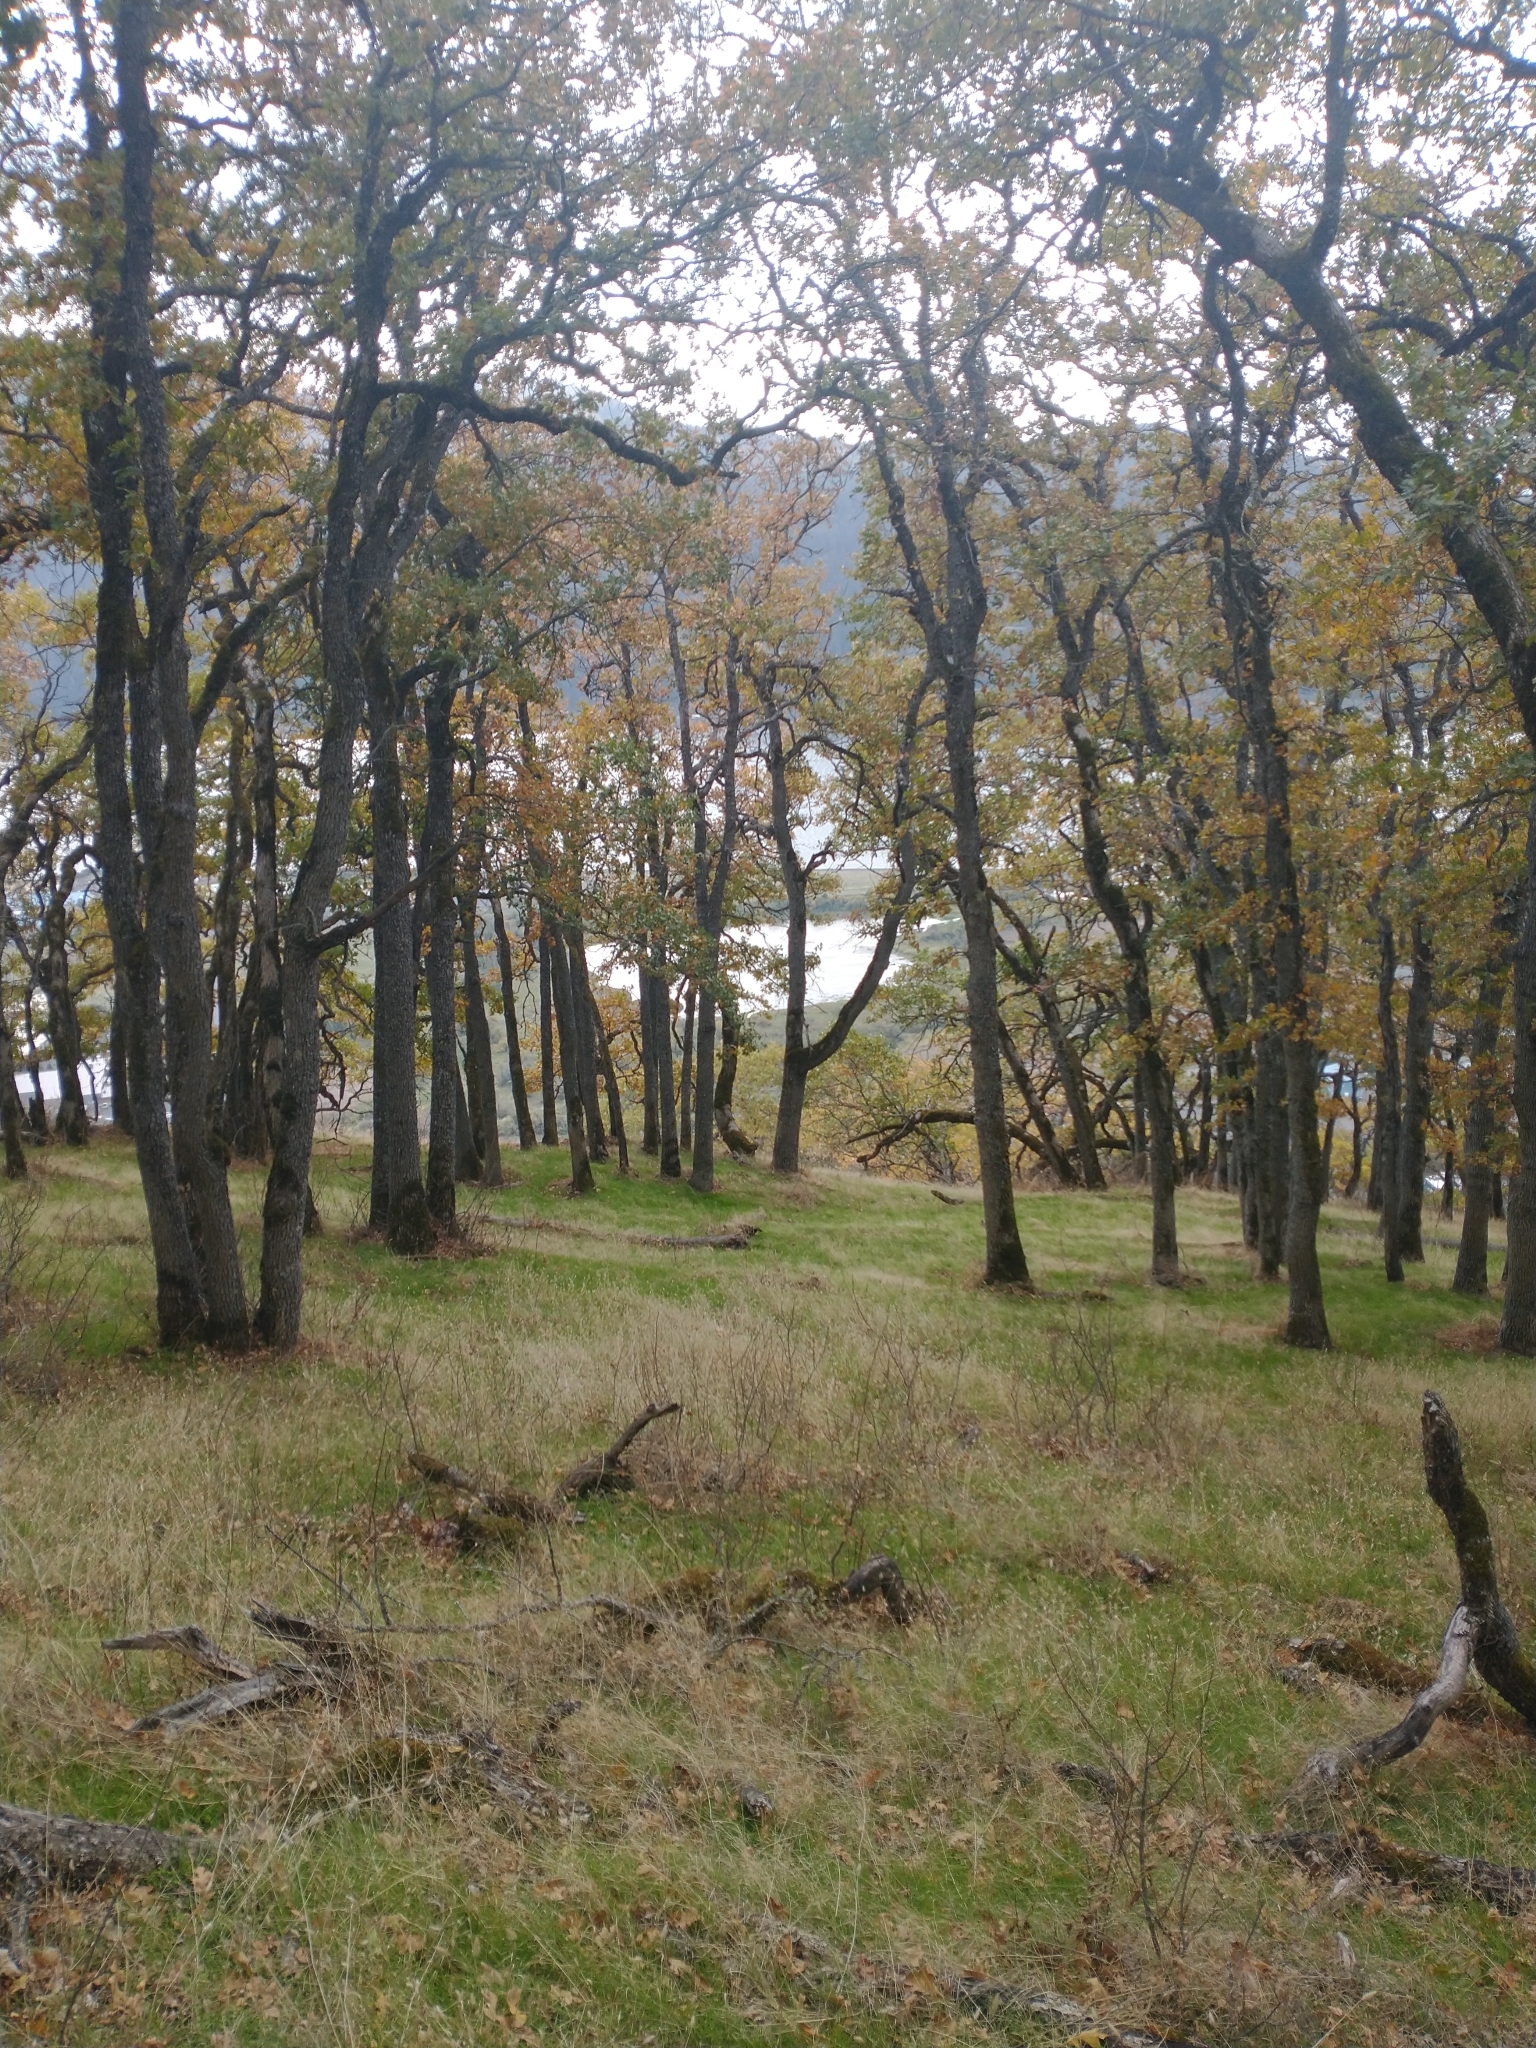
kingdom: Plantae
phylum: Tracheophyta
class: Magnoliopsida
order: Fagales
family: Fagaceae
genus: Quercus
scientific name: Quercus garryana
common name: Garry oak
